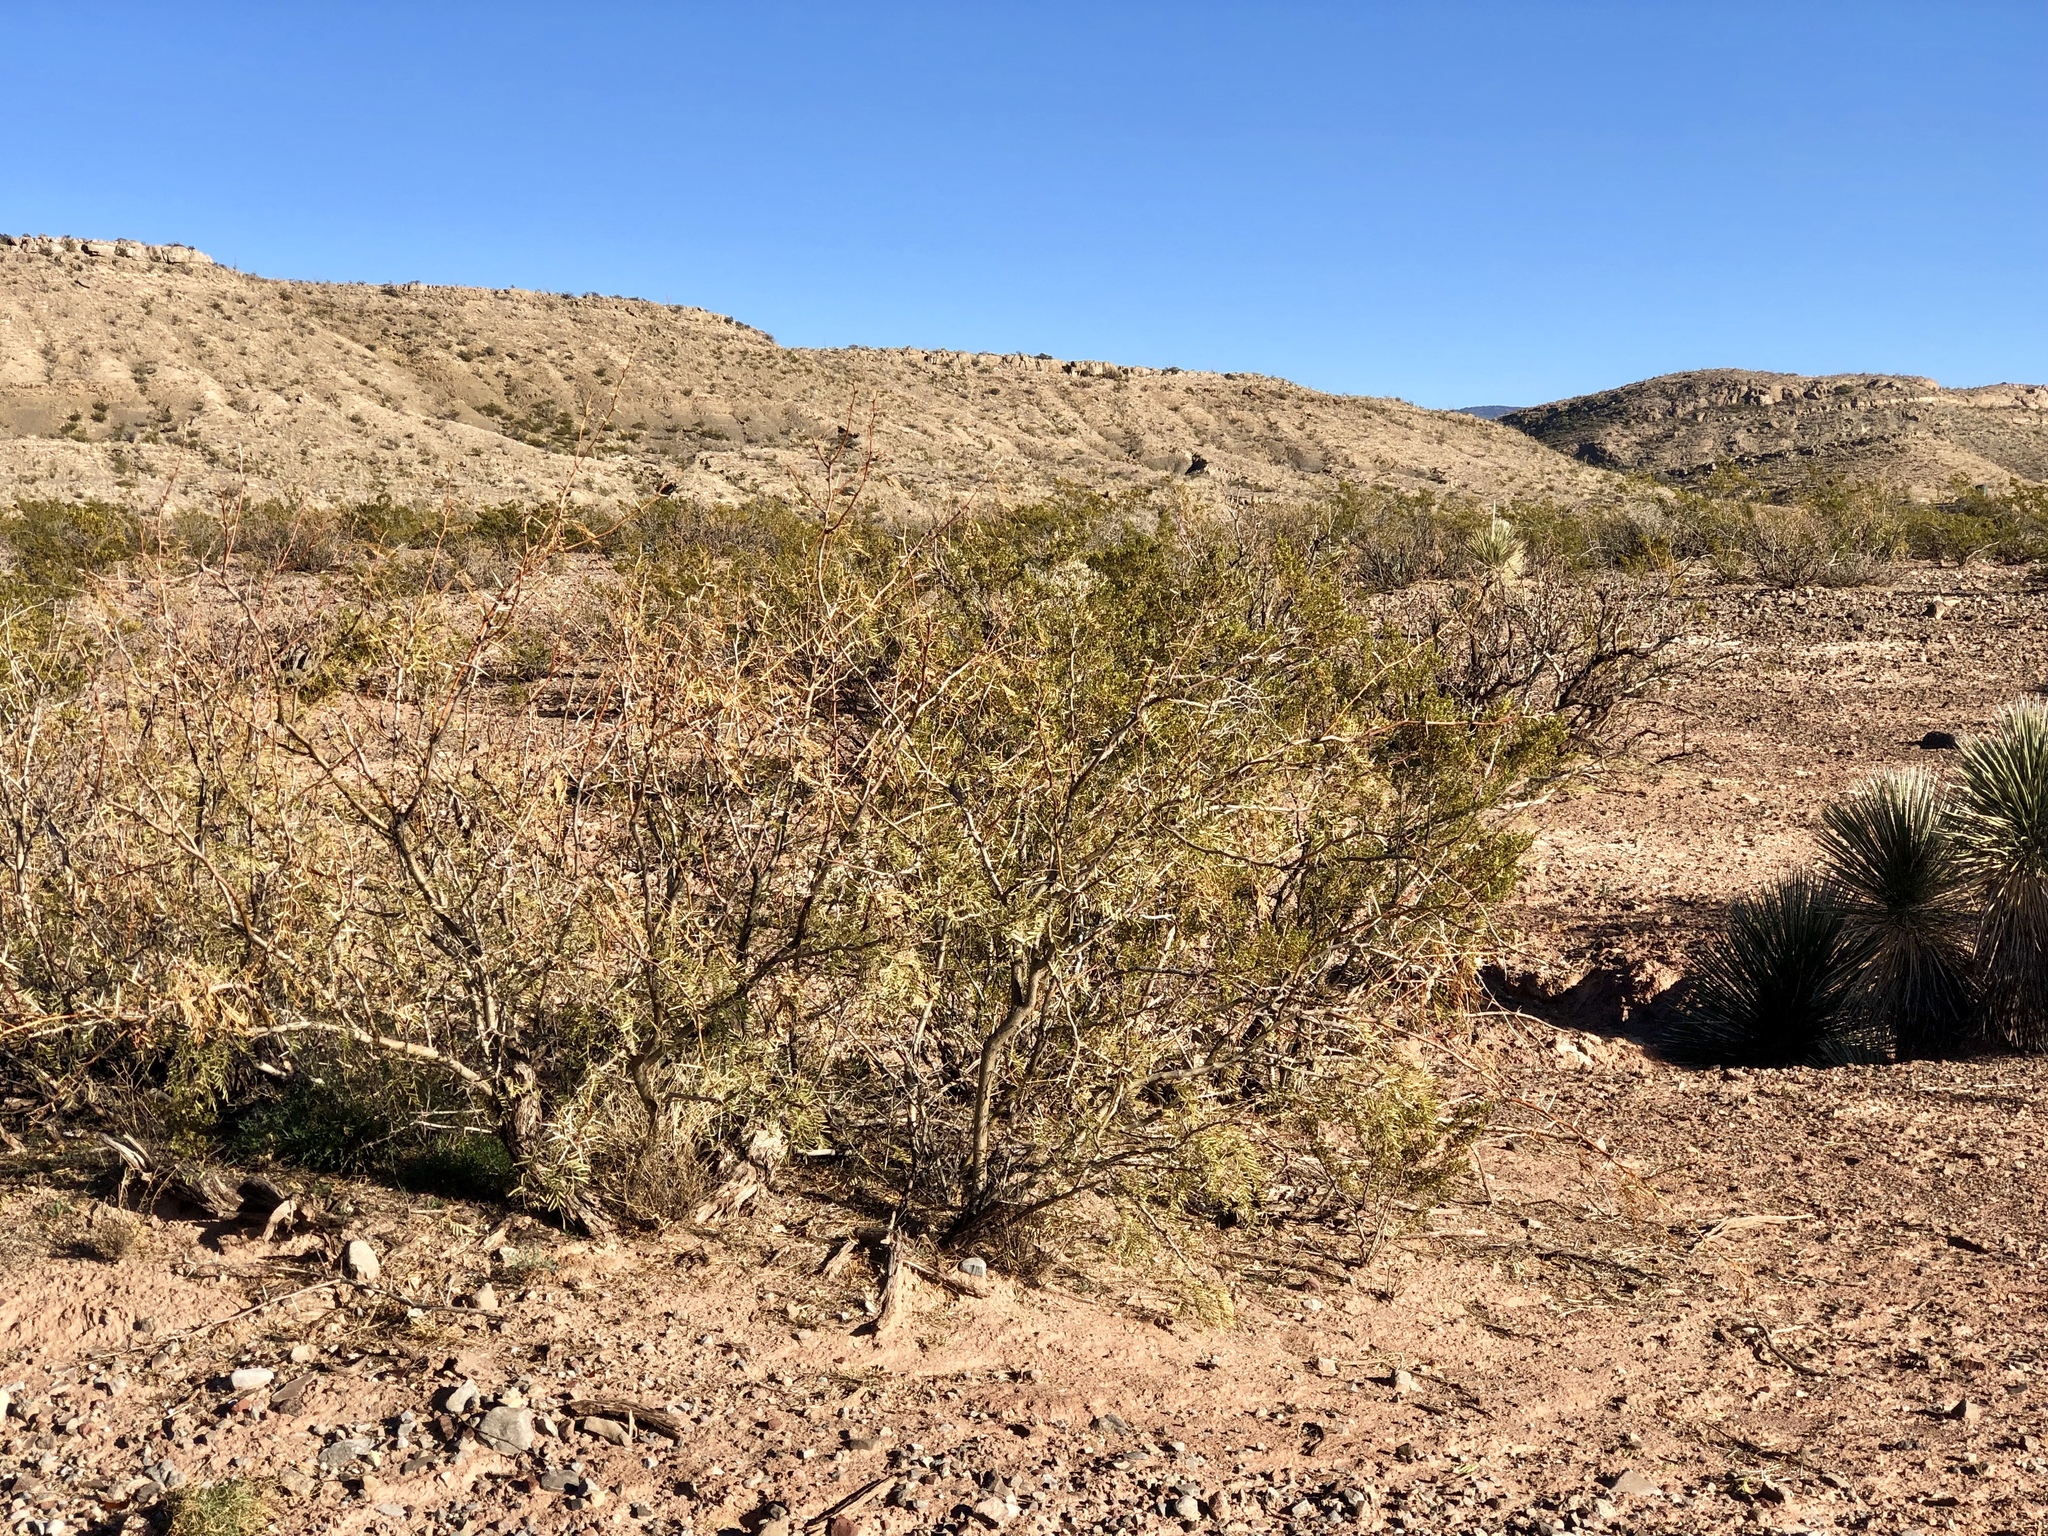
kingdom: Plantae
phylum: Tracheophyta
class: Magnoliopsida
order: Zygophyllales
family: Zygophyllaceae
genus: Larrea
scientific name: Larrea tridentata
